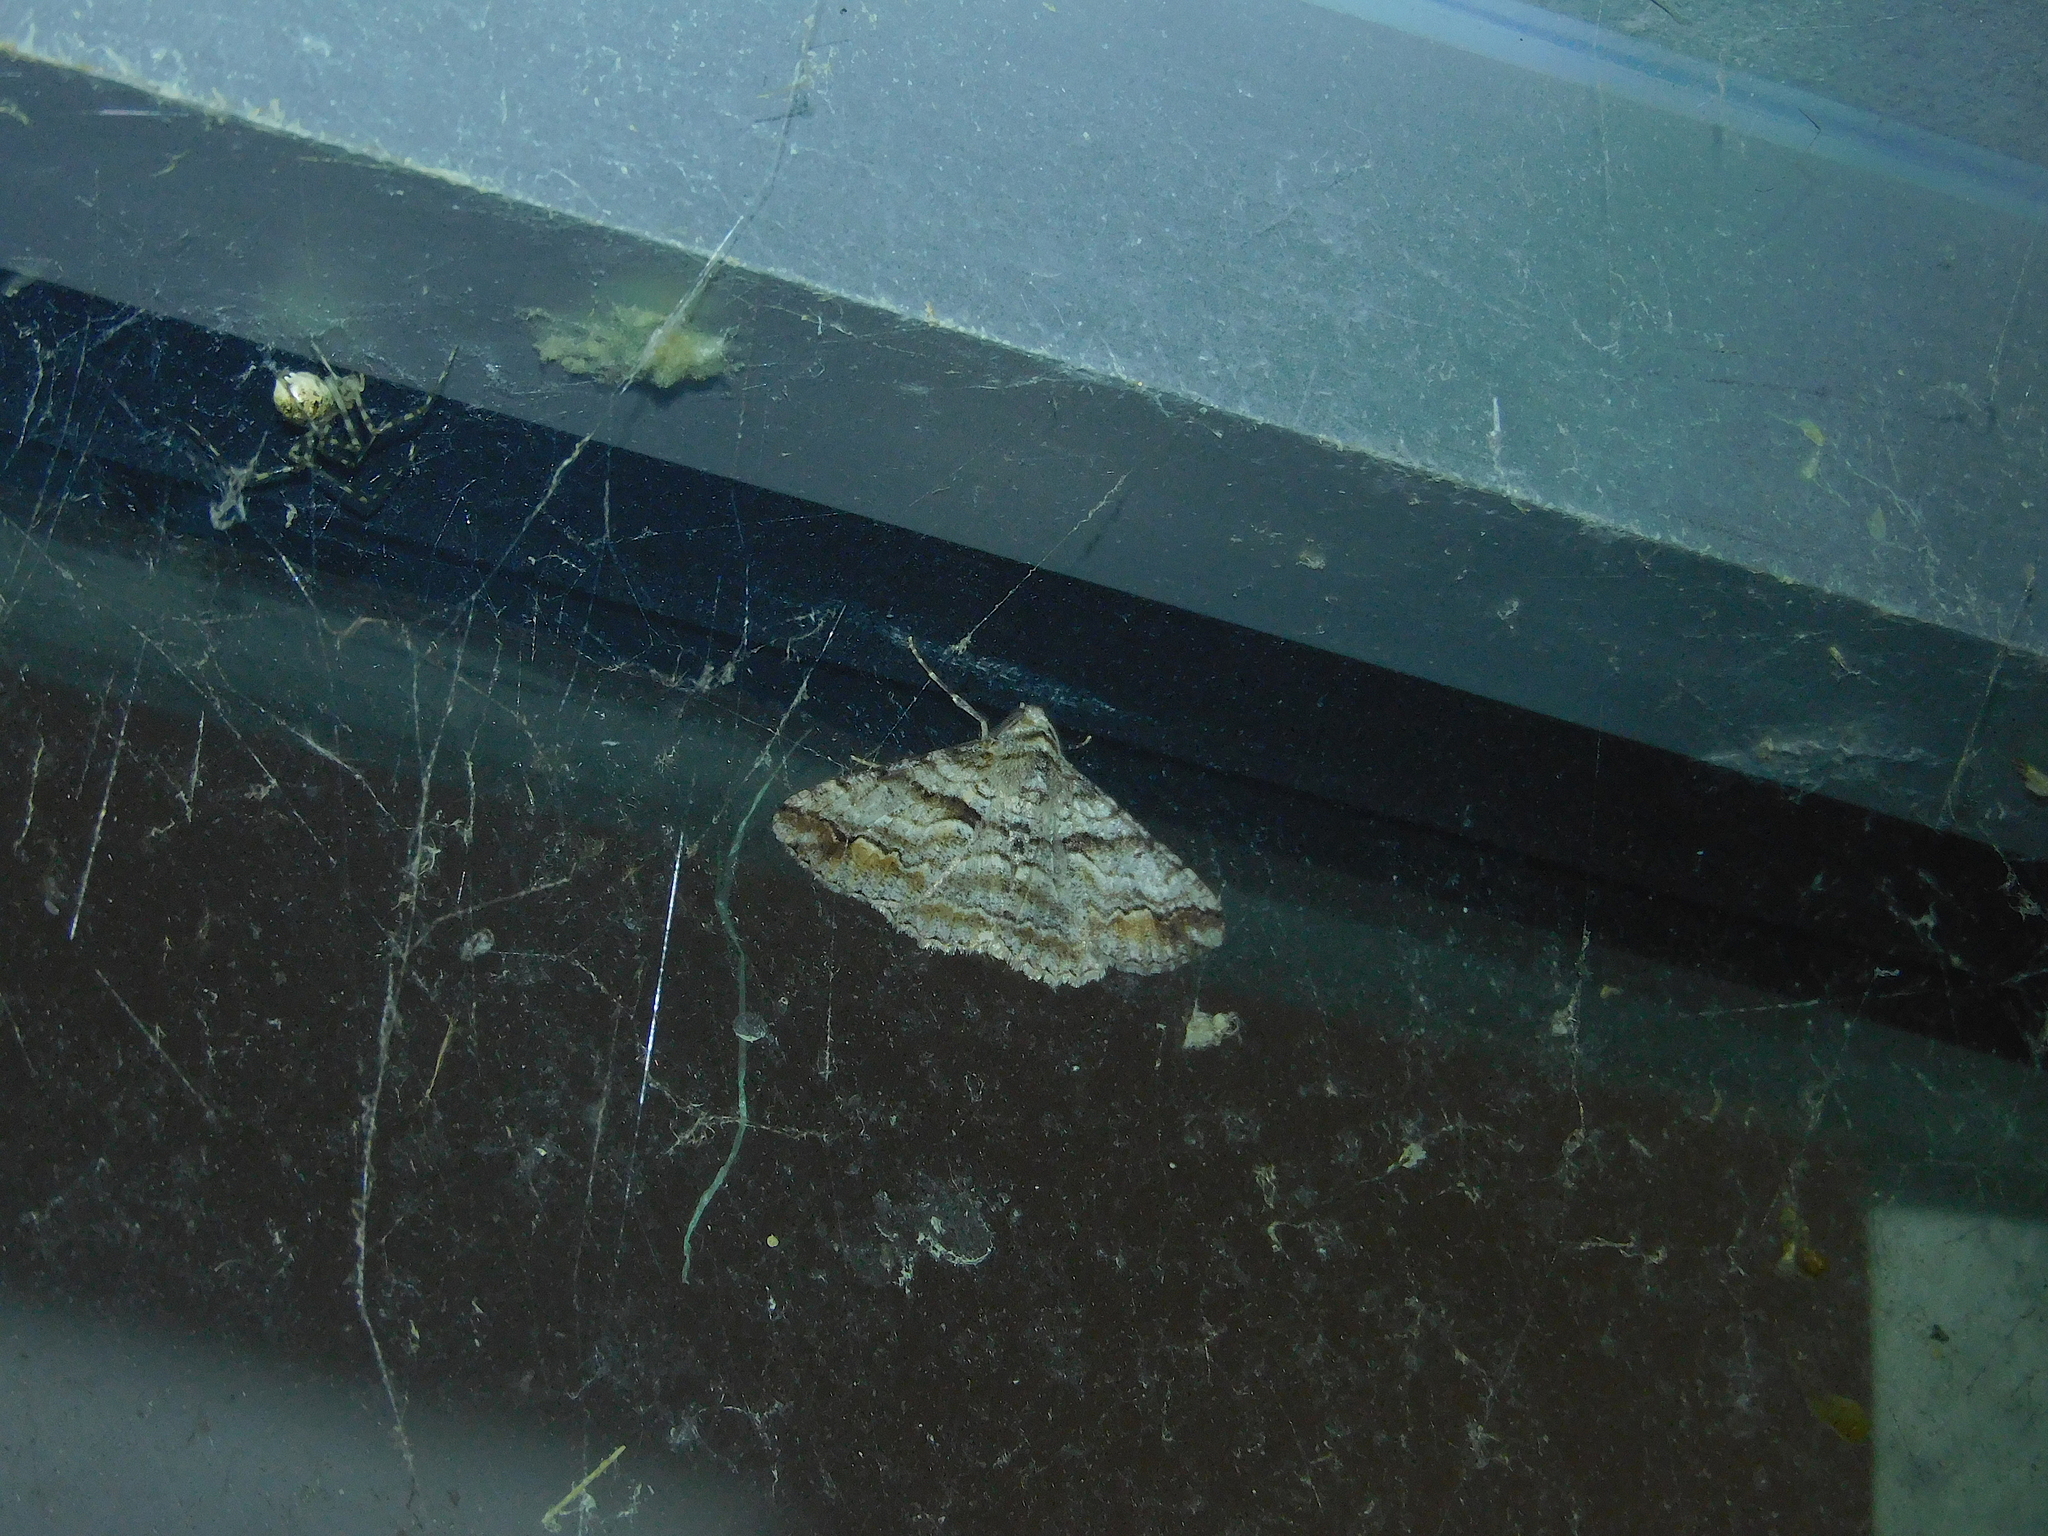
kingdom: Animalia
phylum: Arthropoda
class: Insecta
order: Lepidoptera
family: Geometridae
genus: Gastrinodes
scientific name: Gastrinodes bitaeniaria
